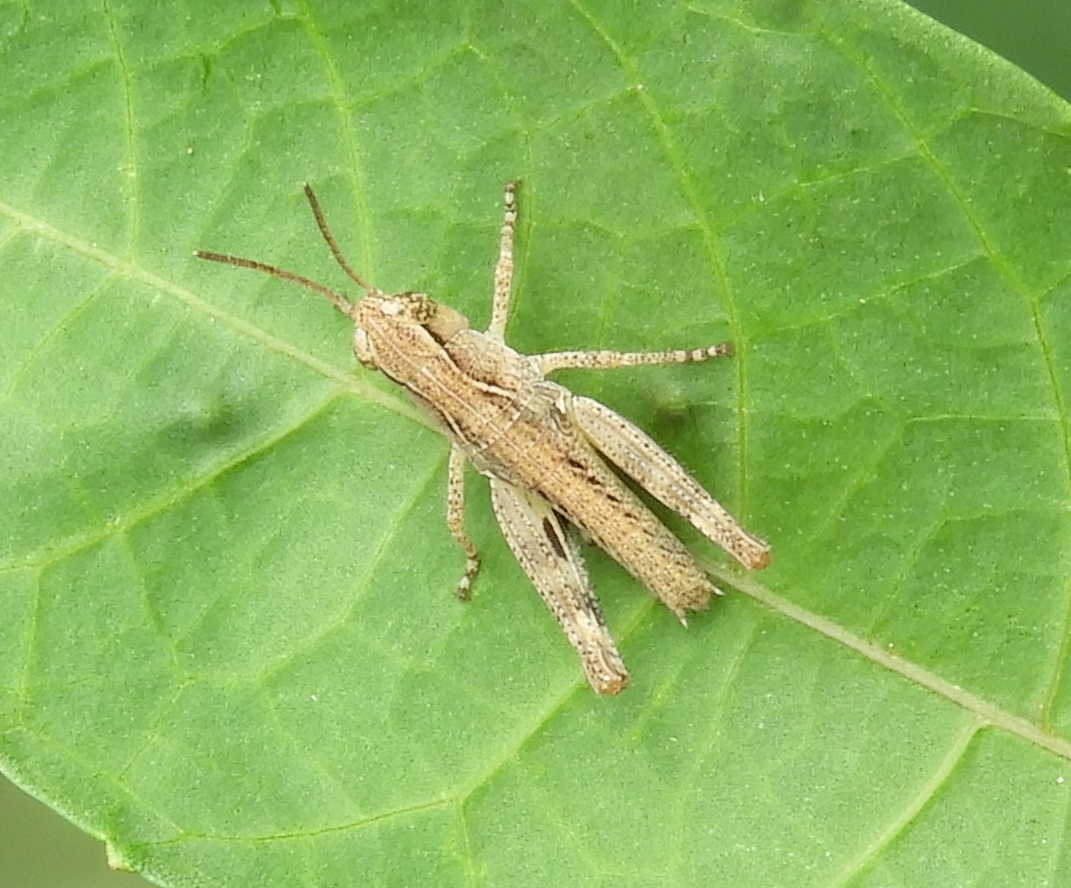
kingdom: Animalia
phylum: Arthropoda
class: Insecta
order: Orthoptera
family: Acrididae
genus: Boopedon
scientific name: Boopedon flaviventris
